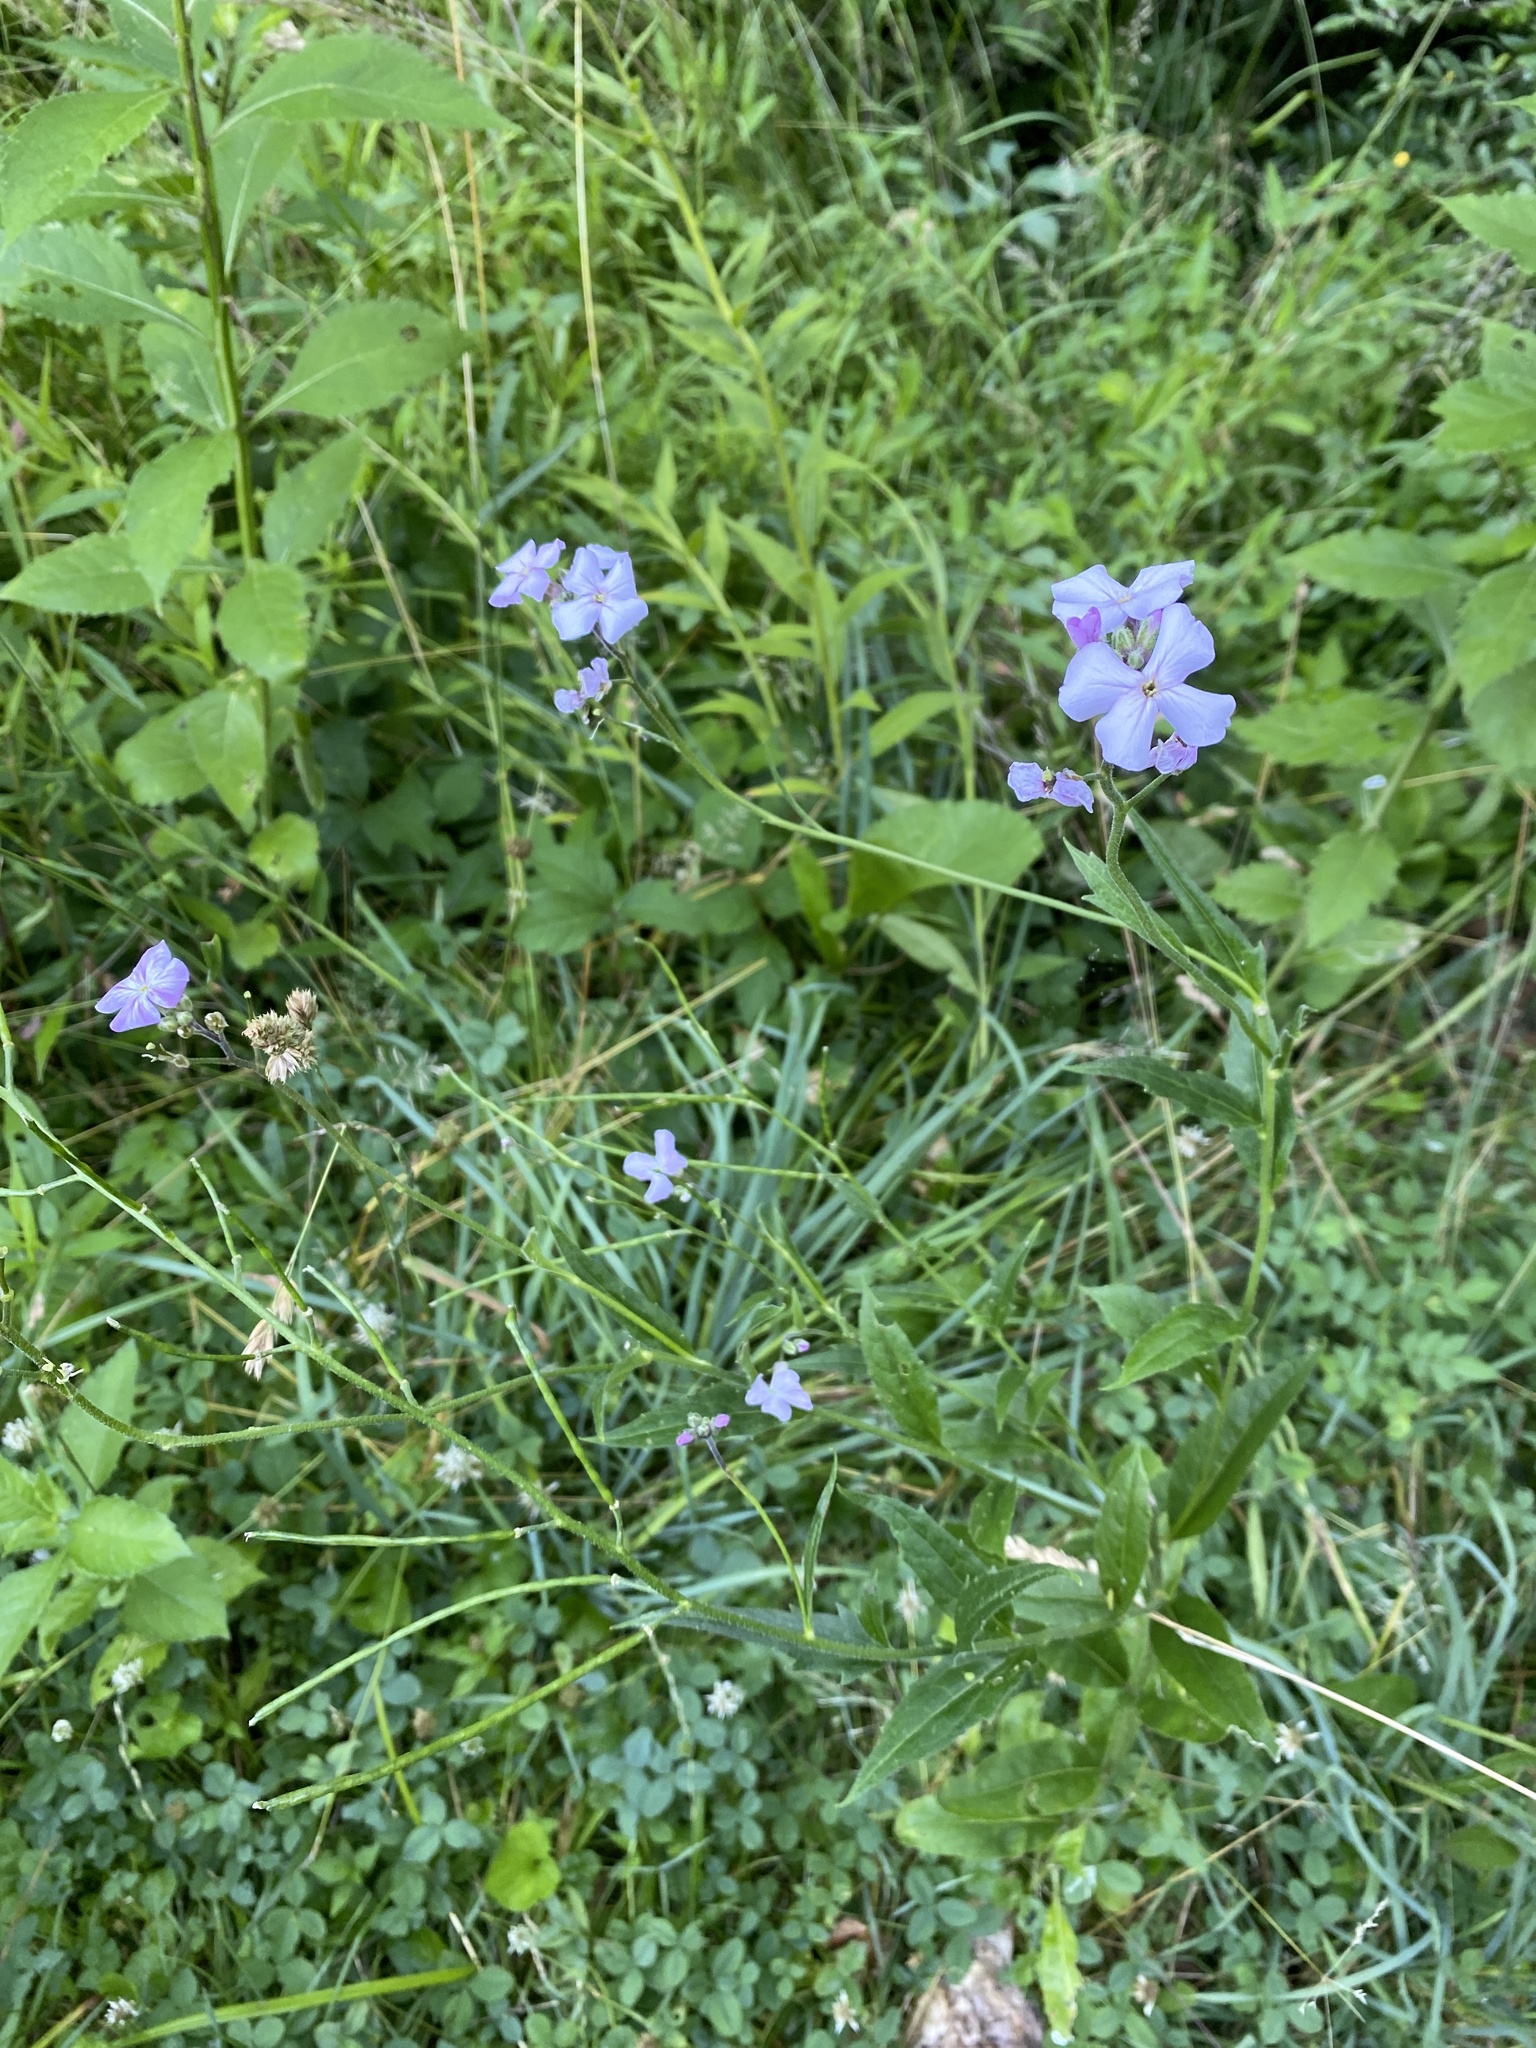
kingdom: Plantae
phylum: Tracheophyta
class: Magnoliopsida
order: Brassicales
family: Brassicaceae
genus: Hesperis
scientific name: Hesperis matronalis
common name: Dame's-violet
